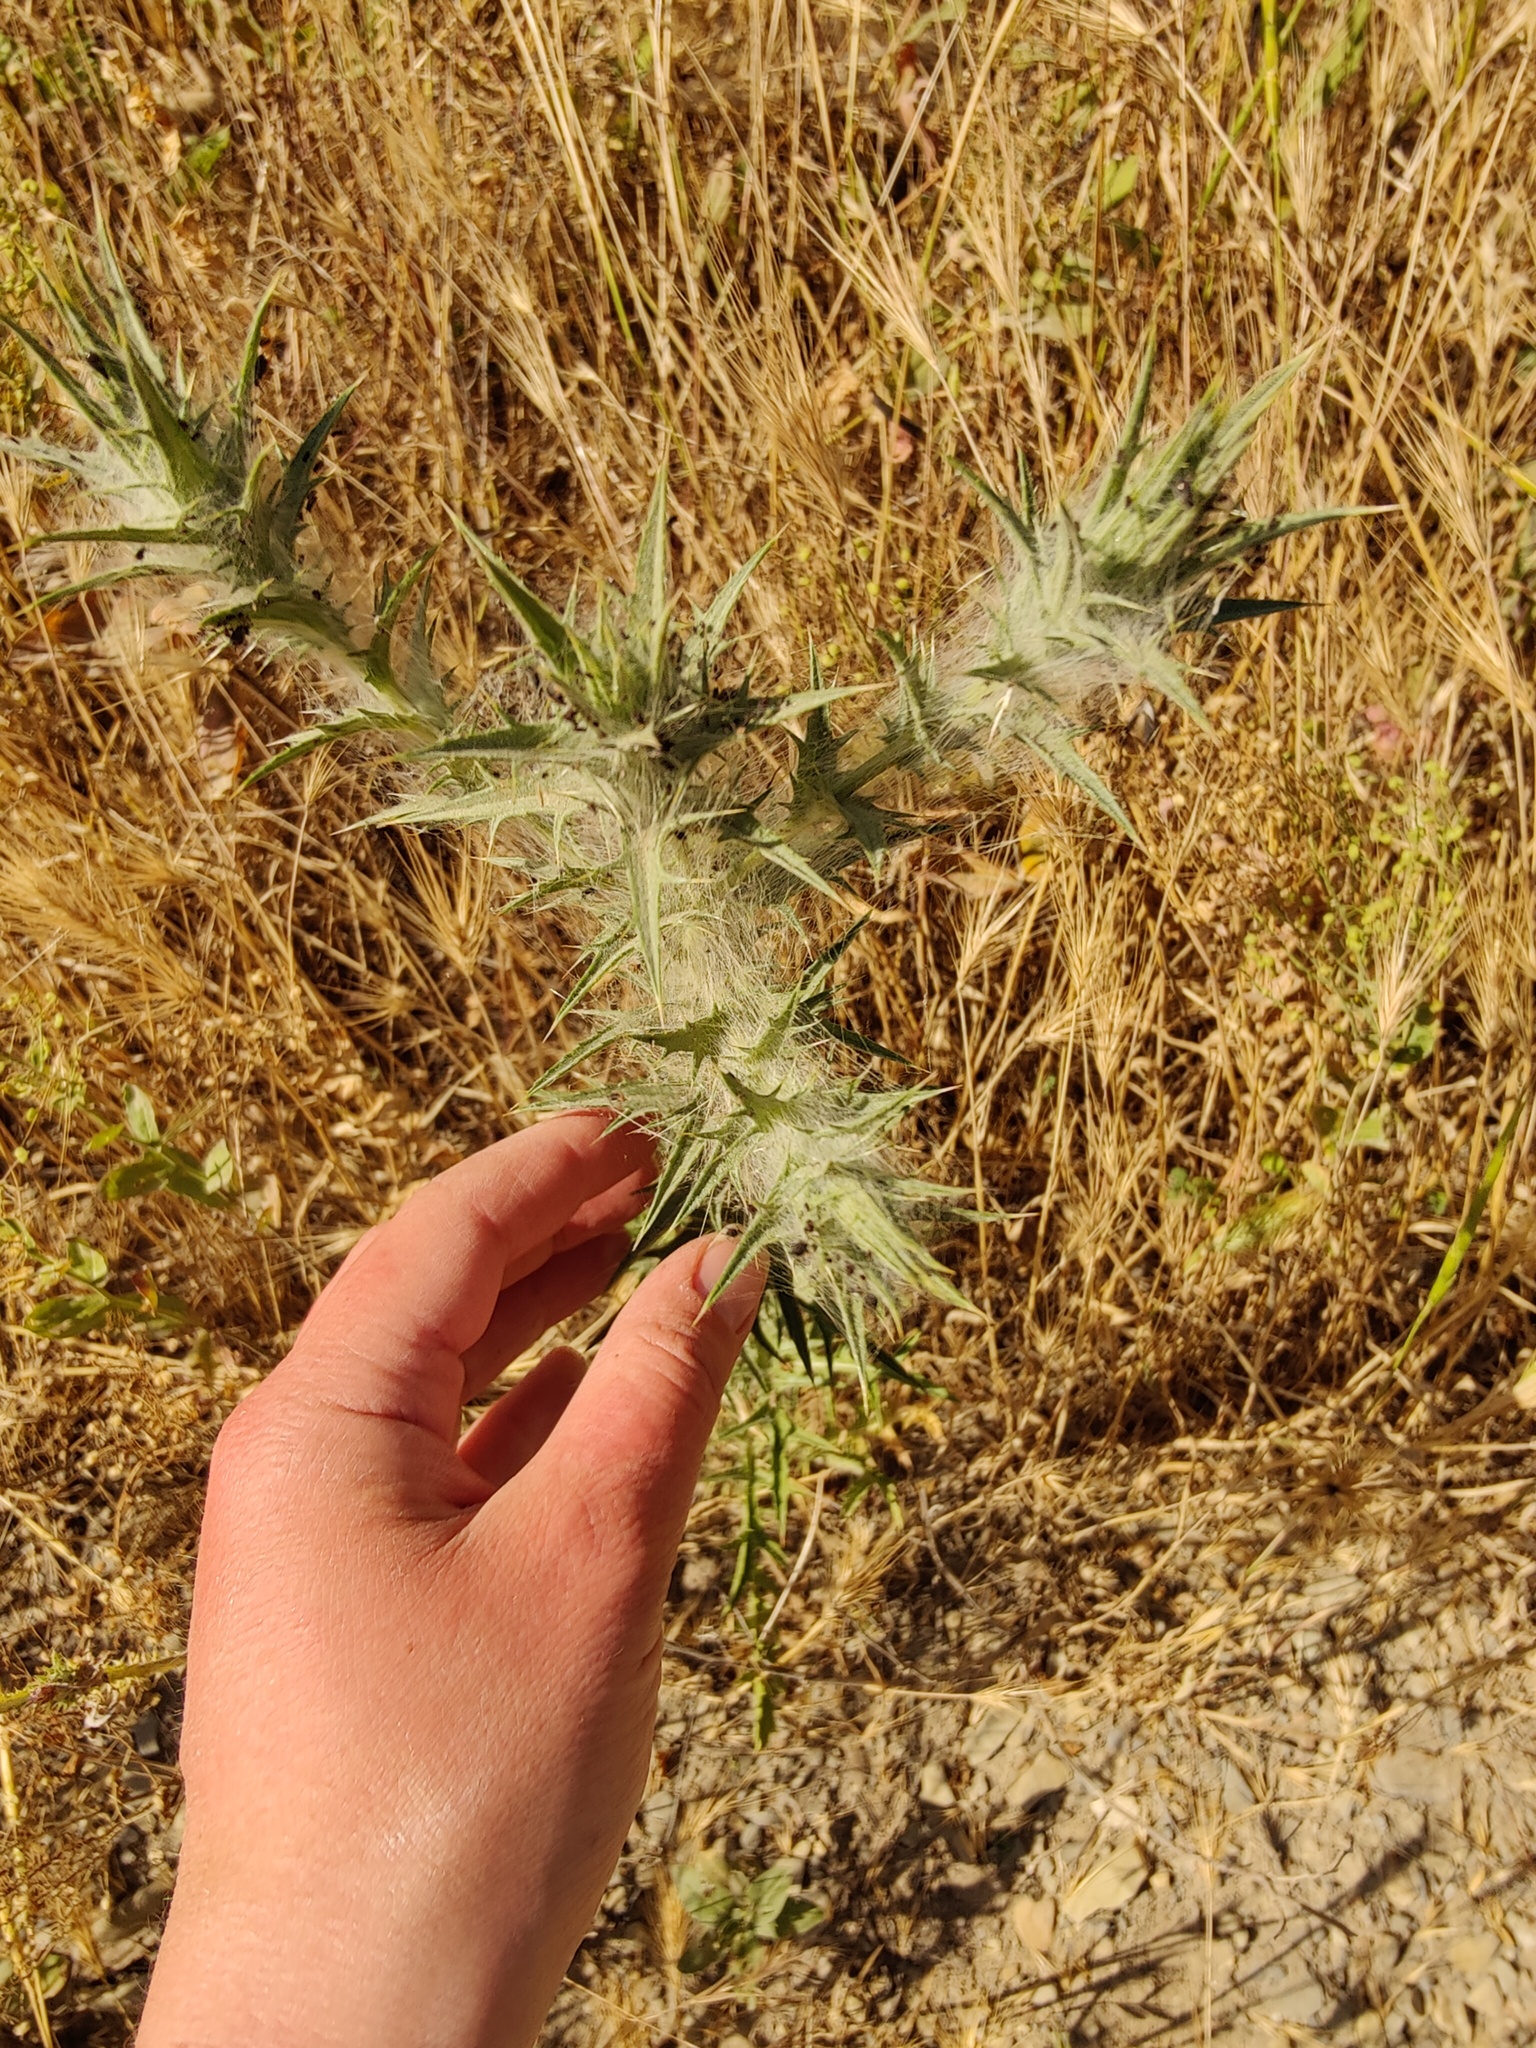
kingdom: Plantae
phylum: Tracheophyta
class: Magnoliopsida
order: Asterales
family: Asteraceae
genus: Carthamus
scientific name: Carthamus lanatus
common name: Downy safflower
